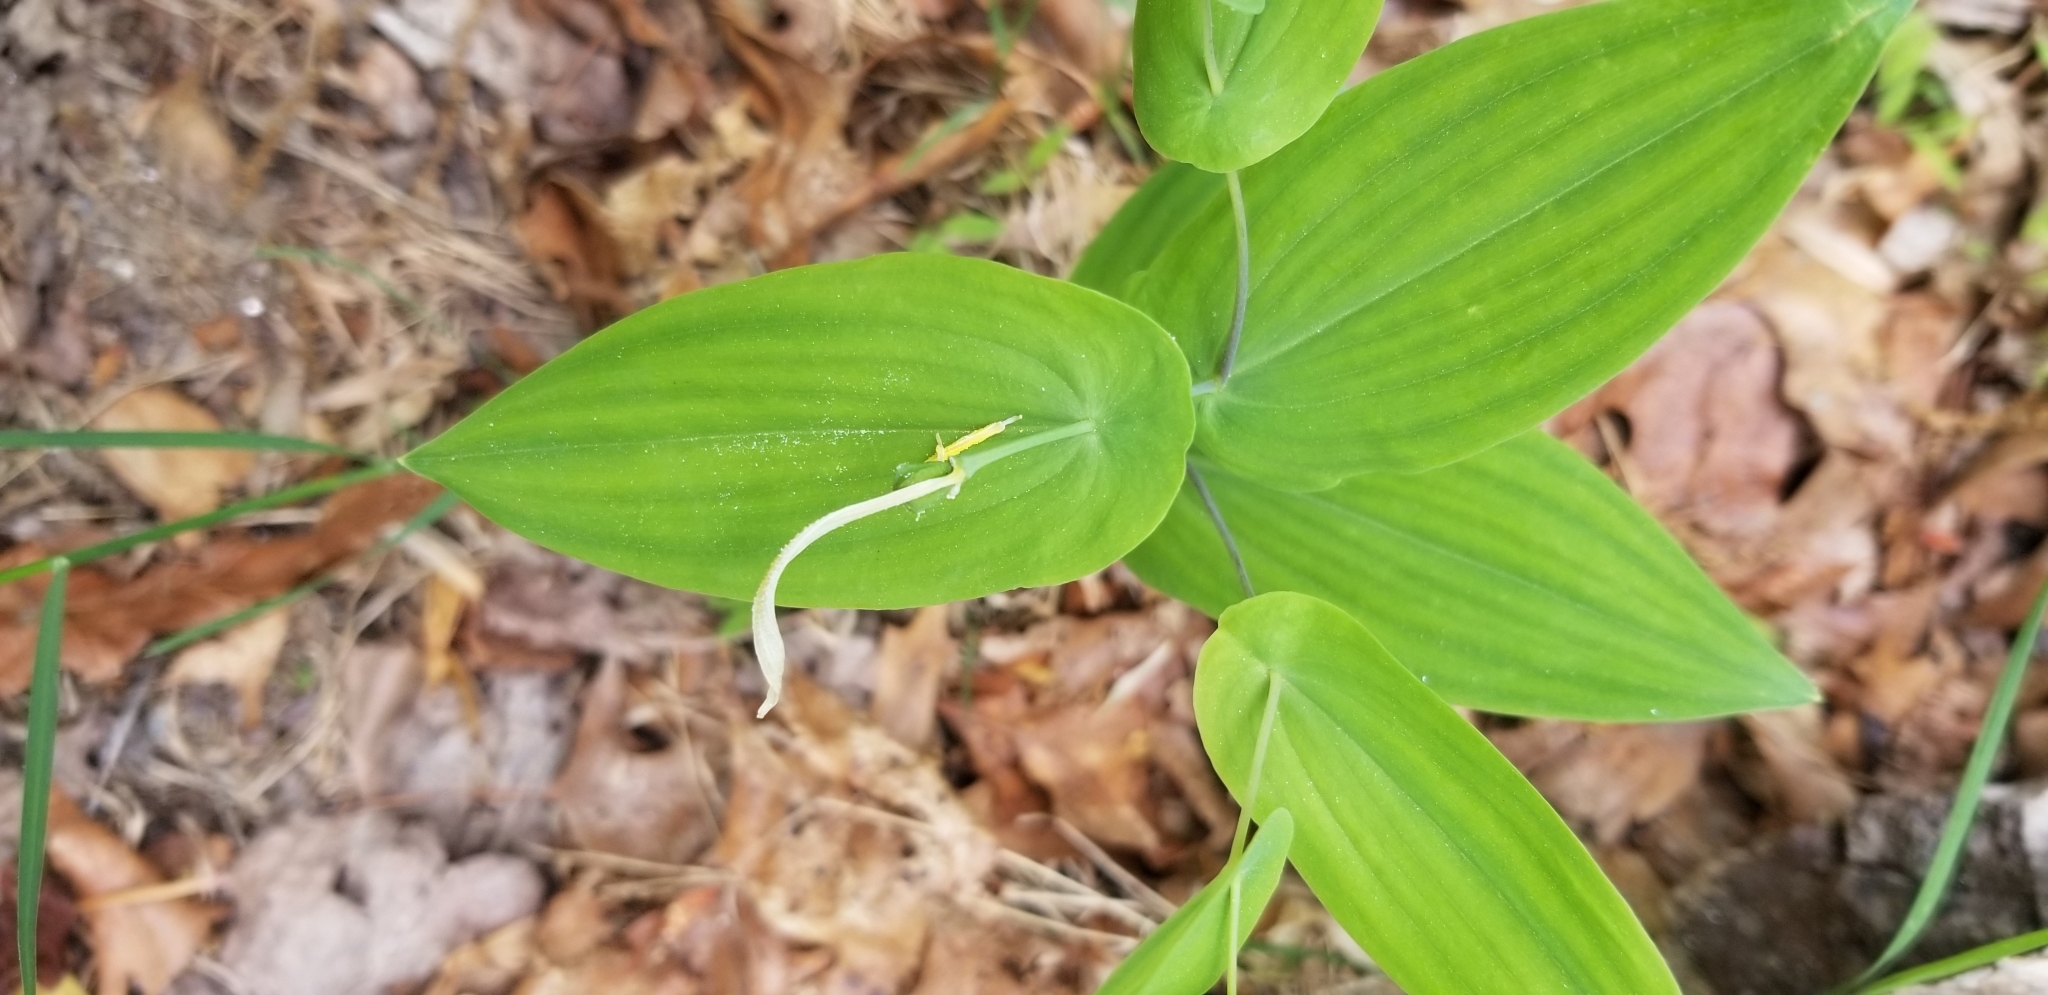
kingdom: Plantae
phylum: Tracheophyta
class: Liliopsida
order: Liliales
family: Colchicaceae
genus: Uvularia
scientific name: Uvularia perfoliata
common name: Perfoliate bellwort
